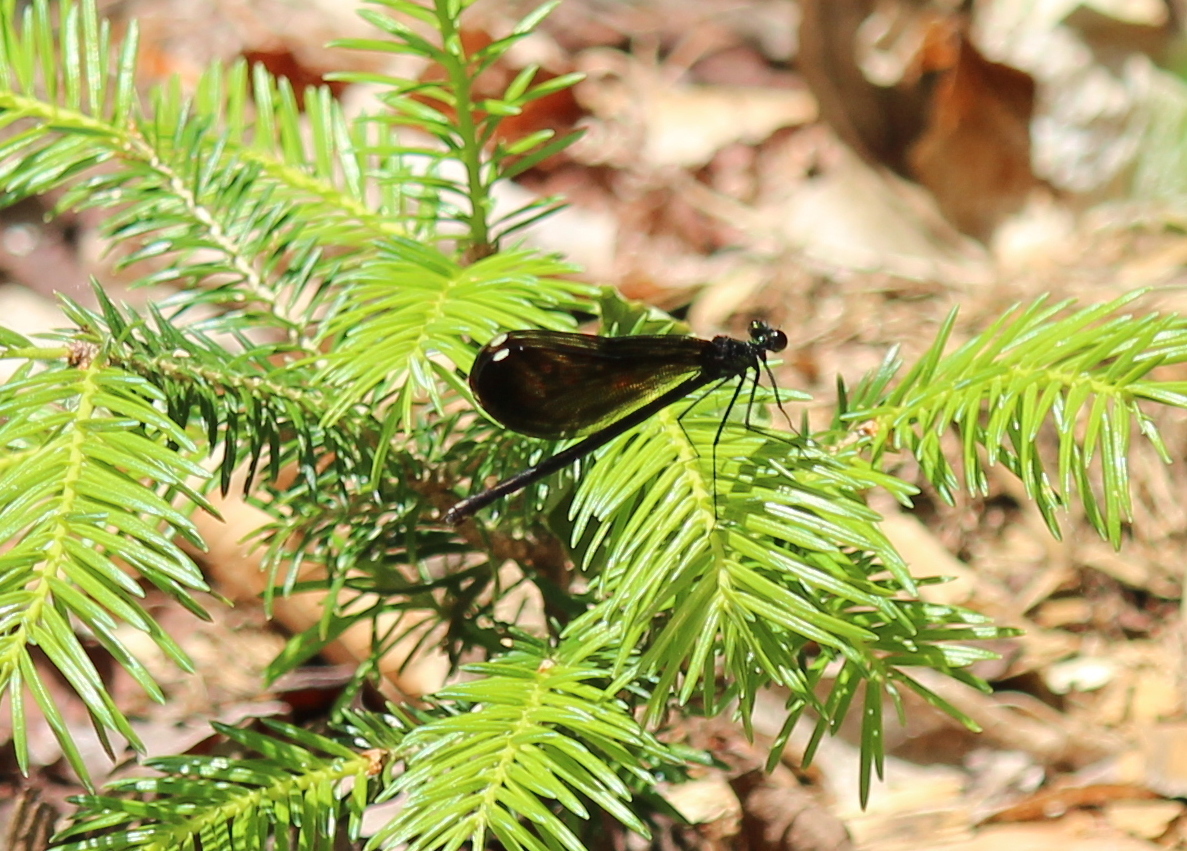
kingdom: Animalia
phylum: Arthropoda
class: Insecta
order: Odonata
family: Calopterygidae
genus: Calopteryx
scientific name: Calopteryx maculata
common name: Ebony jewelwing
